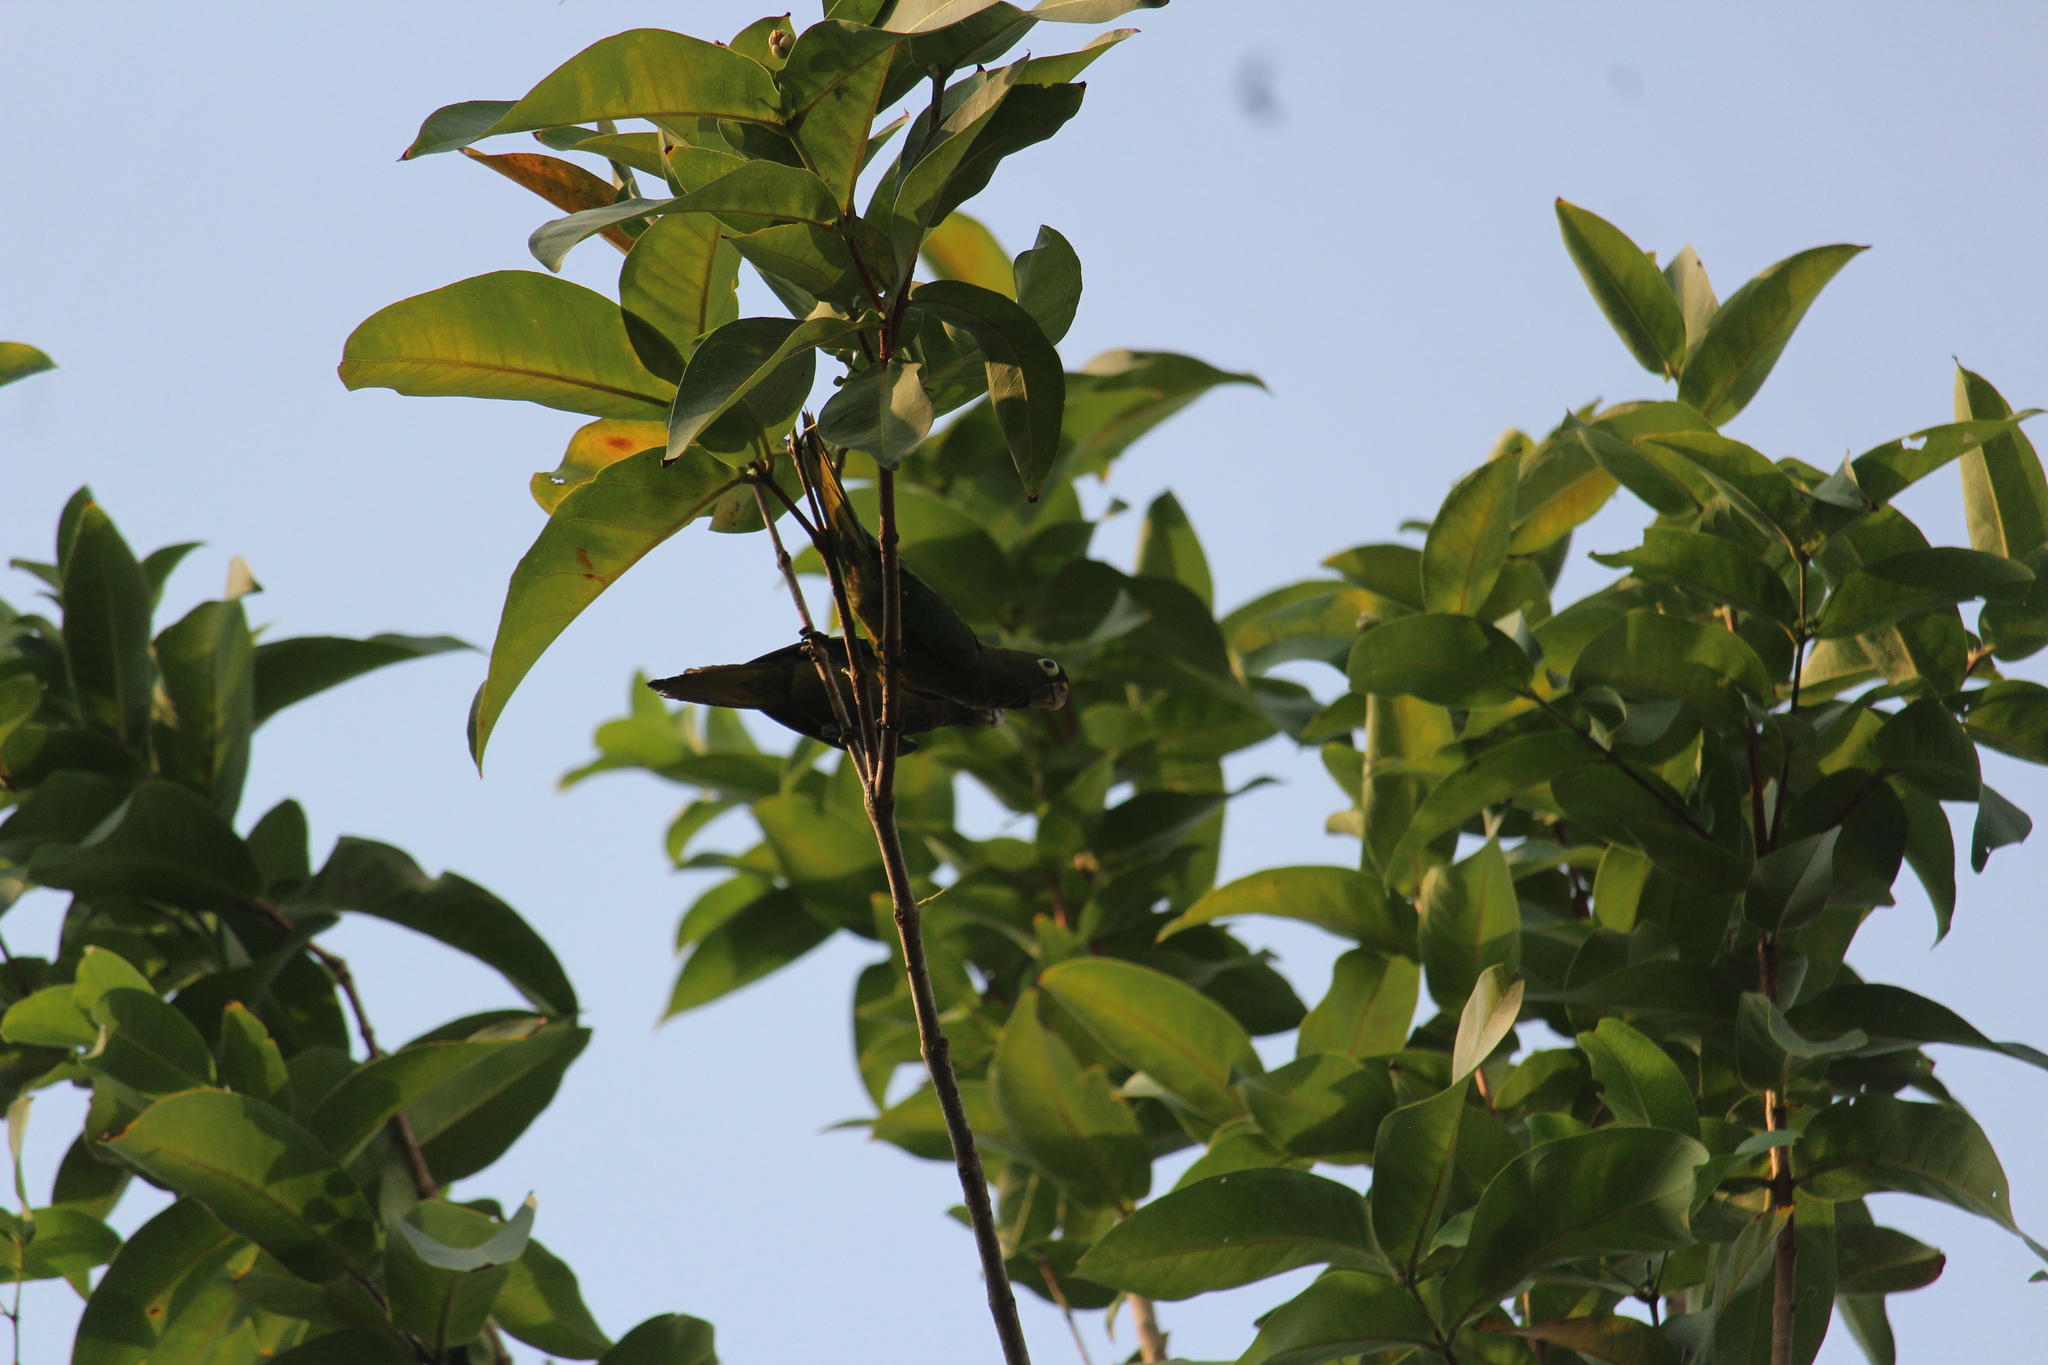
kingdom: Animalia
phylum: Chordata
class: Aves
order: Psittaciformes
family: Psittacidae
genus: Aratinga
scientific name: Aratinga nana
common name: Olive-throated parakeet
